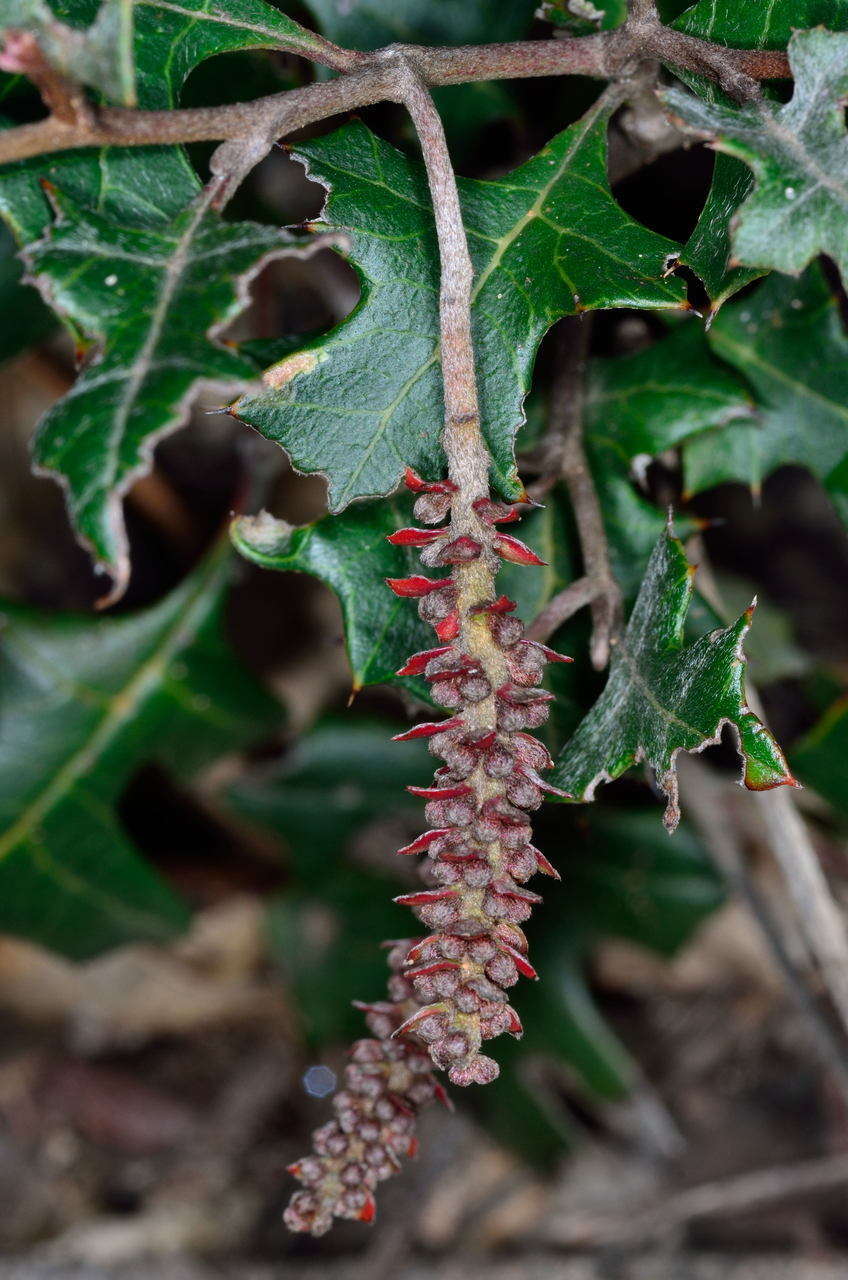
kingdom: Plantae
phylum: Tracheophyta
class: Magnoliopsida
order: Proteales
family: Proteaceae
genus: Grevillea
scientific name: Grevillea steiglitziana
